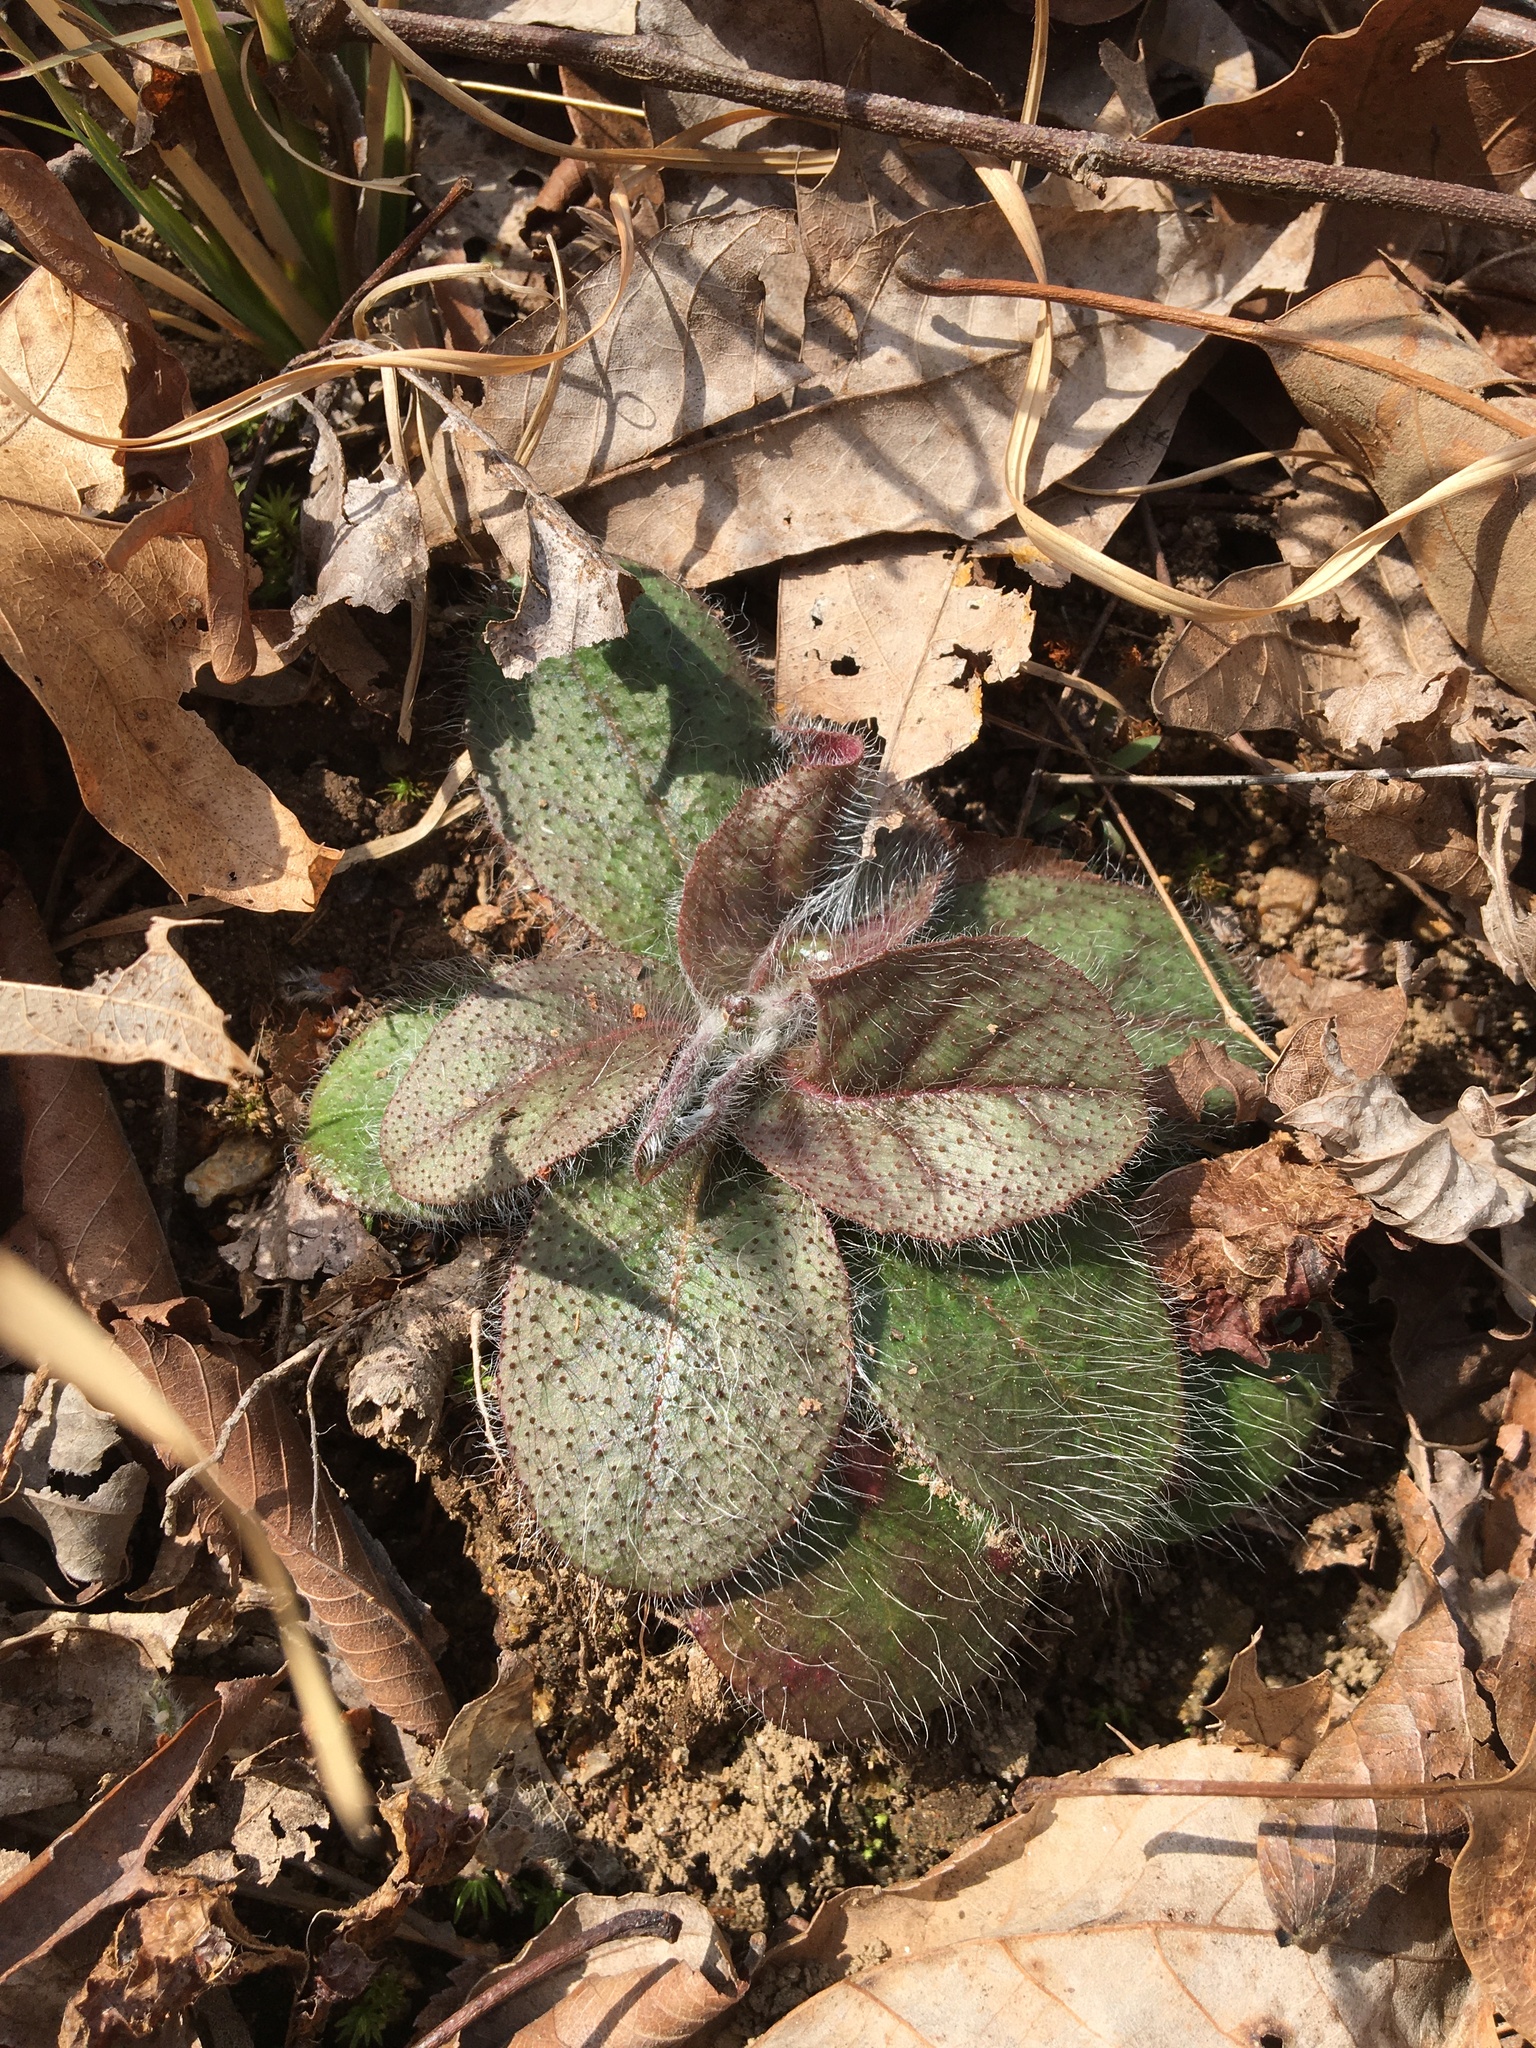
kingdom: Plantae
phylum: Tracheophyta
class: Magnoliopsida
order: Asterales
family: Asteraceae
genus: Hieracium
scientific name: Hieracium venosum
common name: Rattlesnake hawkweed
